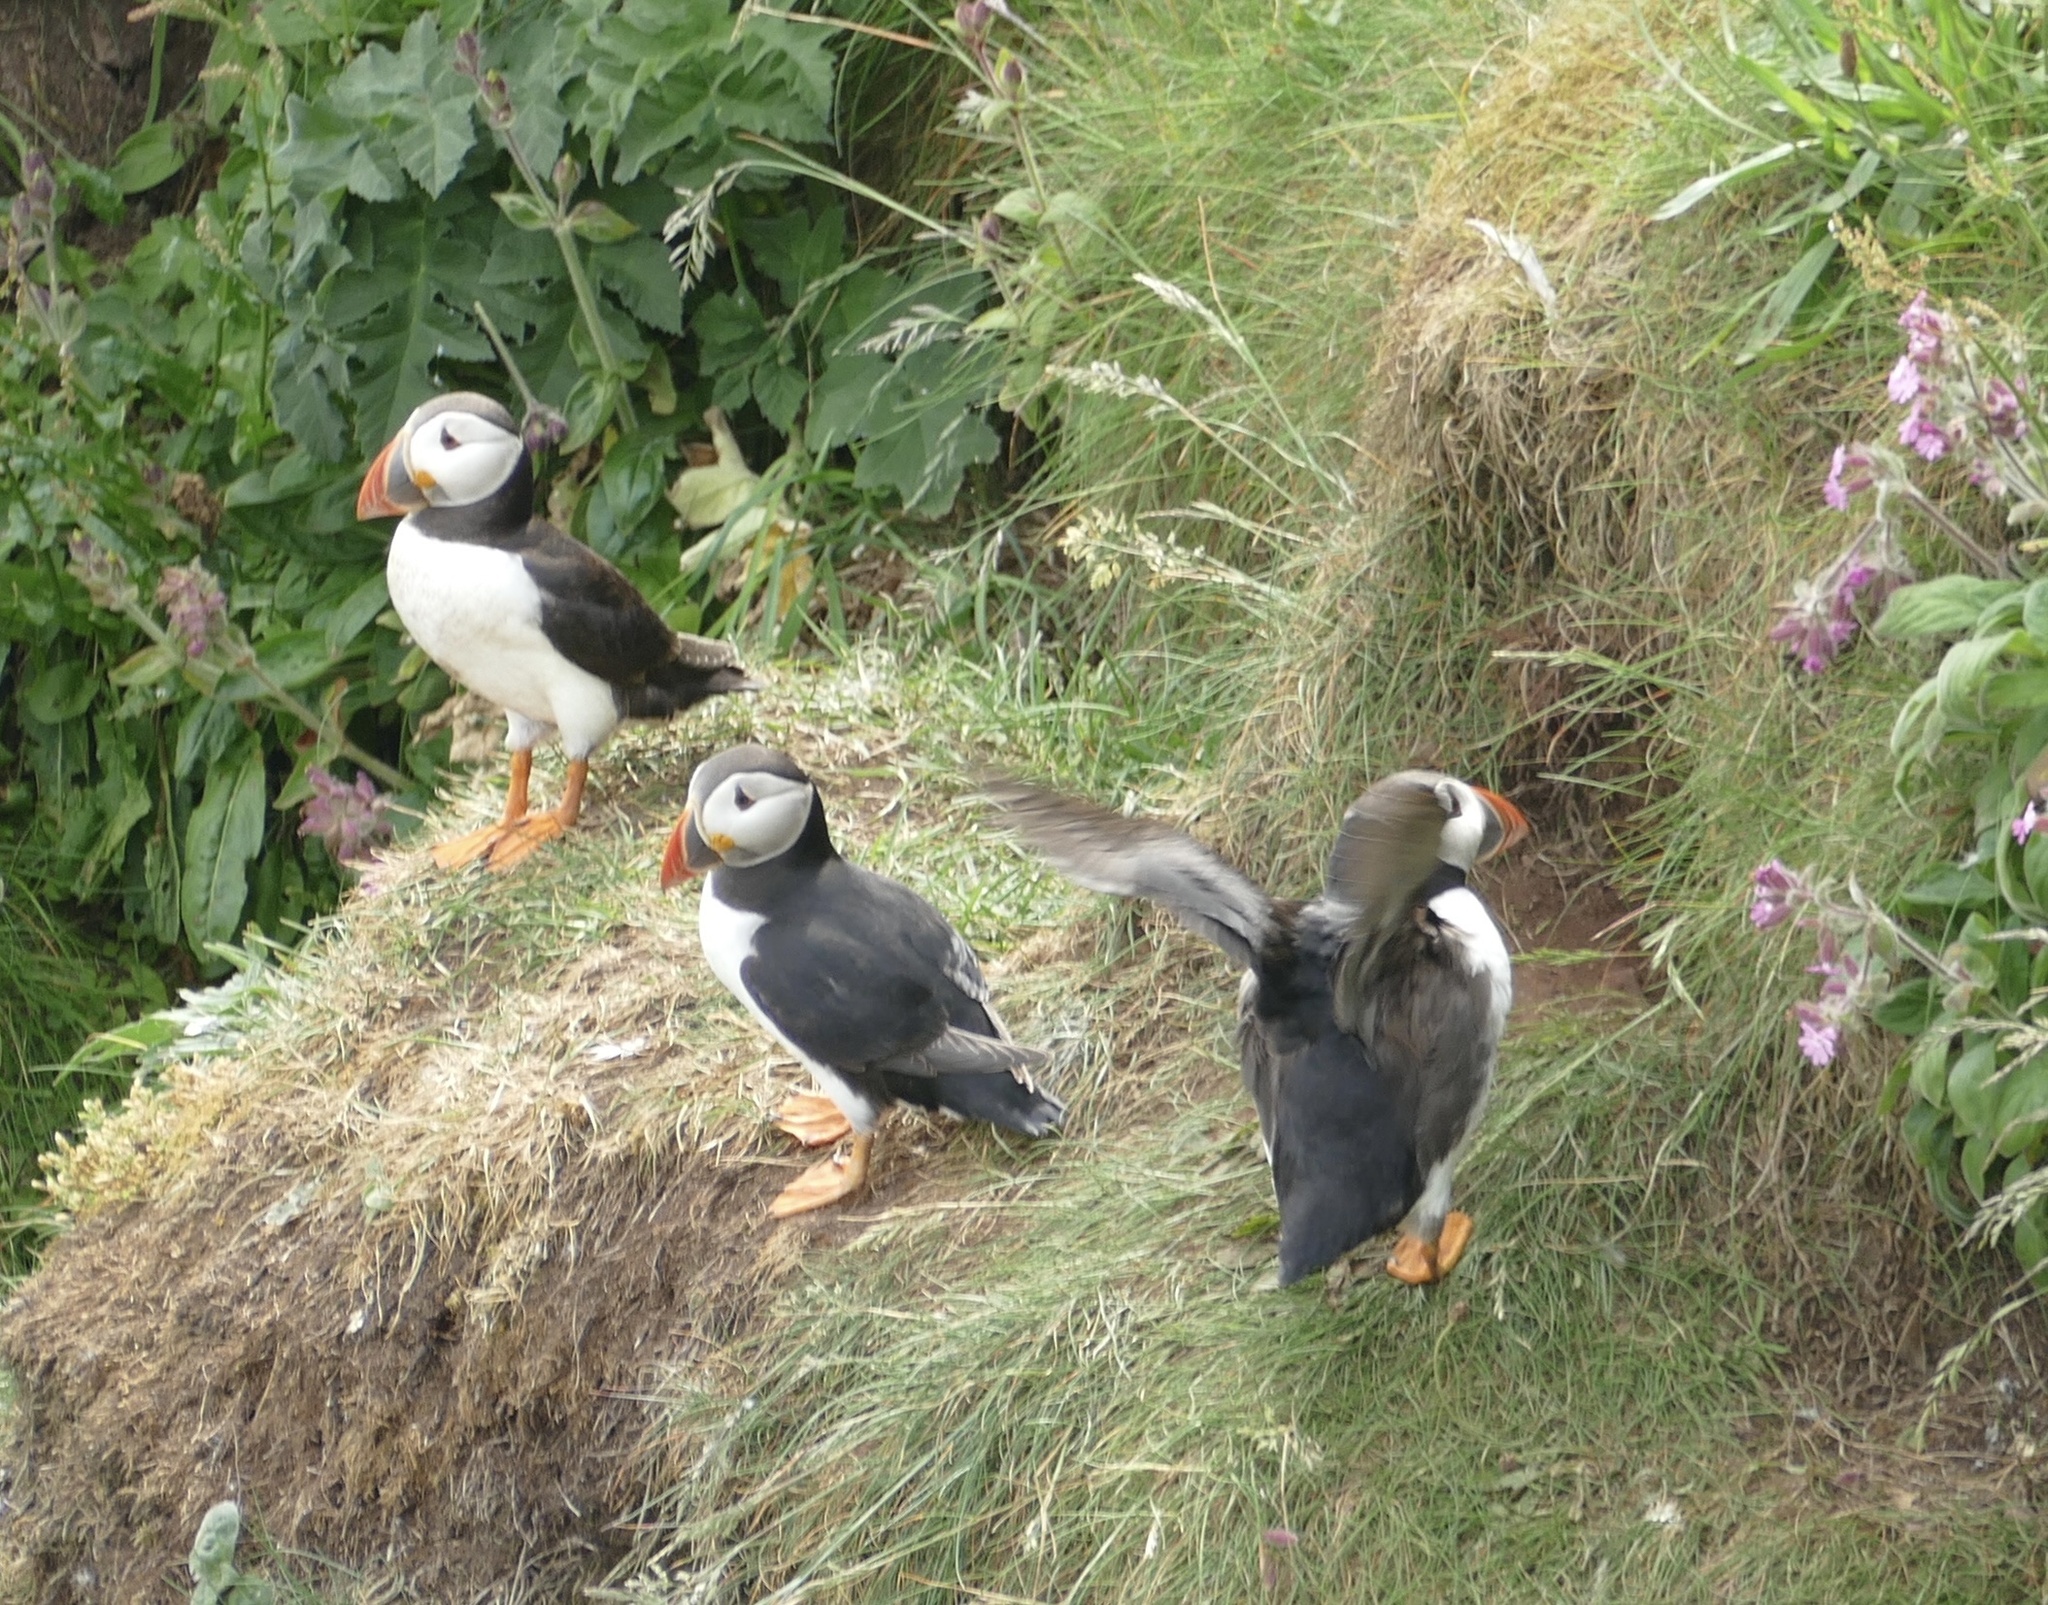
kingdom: Animalia
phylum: Chordata
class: Aves
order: Charadriiformes
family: Alcidae
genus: Fratercula
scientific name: Fratercula arctica
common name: Atlantic puffin
